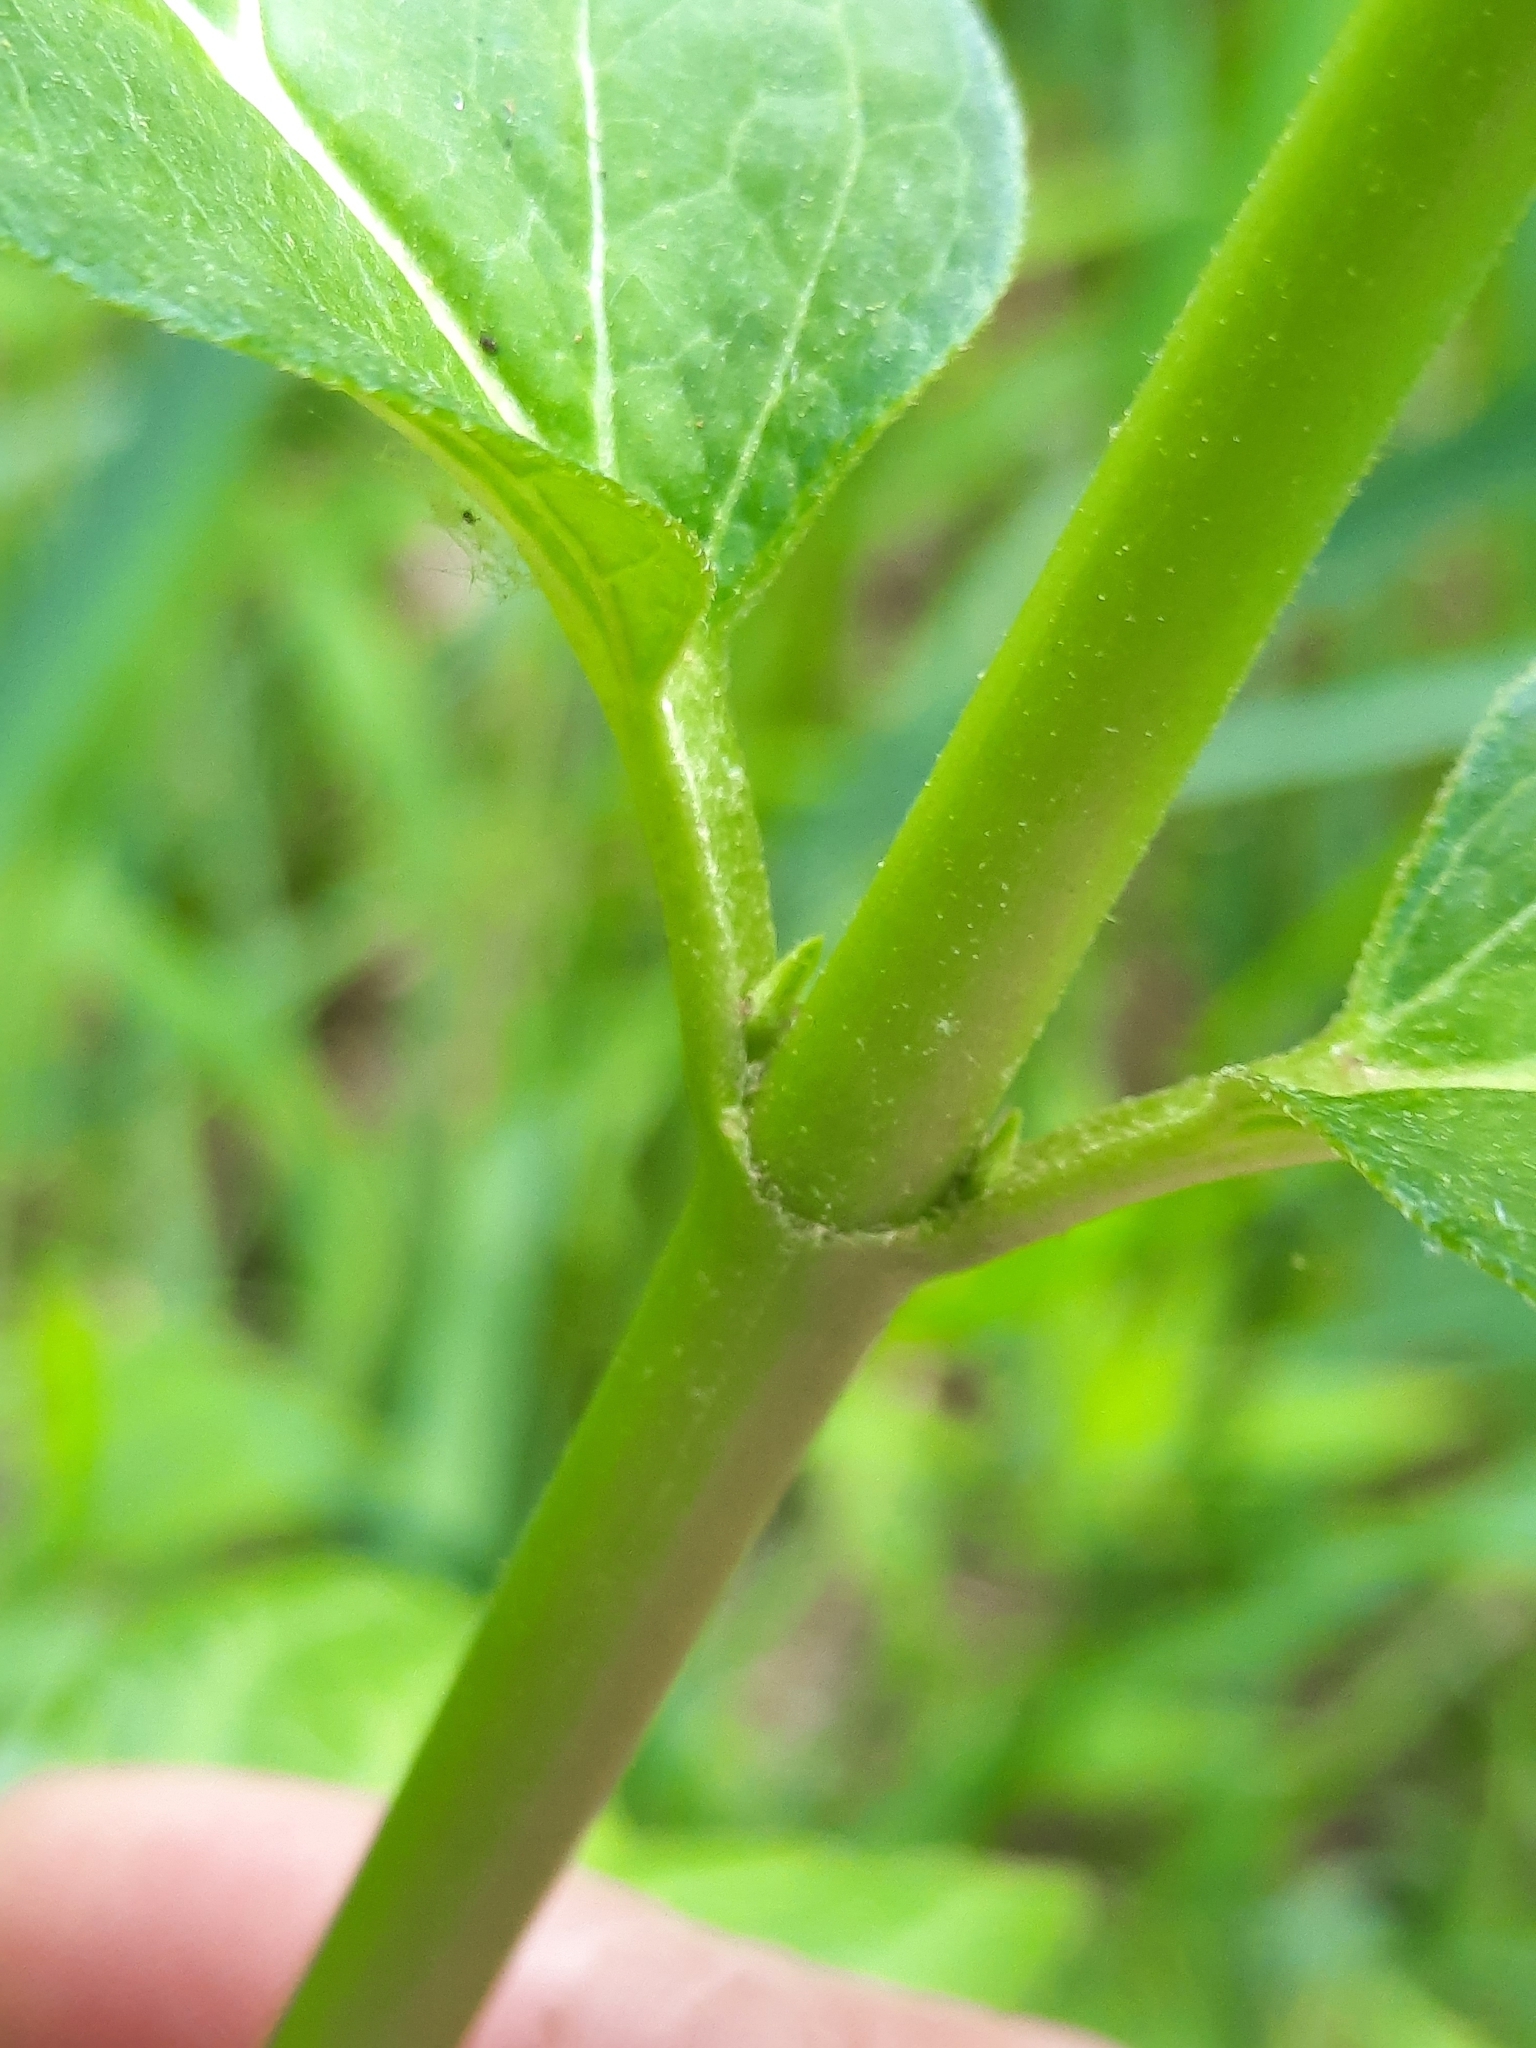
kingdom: Plantae
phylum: Tracheophyta
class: Magnoliopsida
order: Gentianales
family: Apocynaceae
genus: Asclepias
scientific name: Asclepias incarnata
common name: Swamp milkweed
